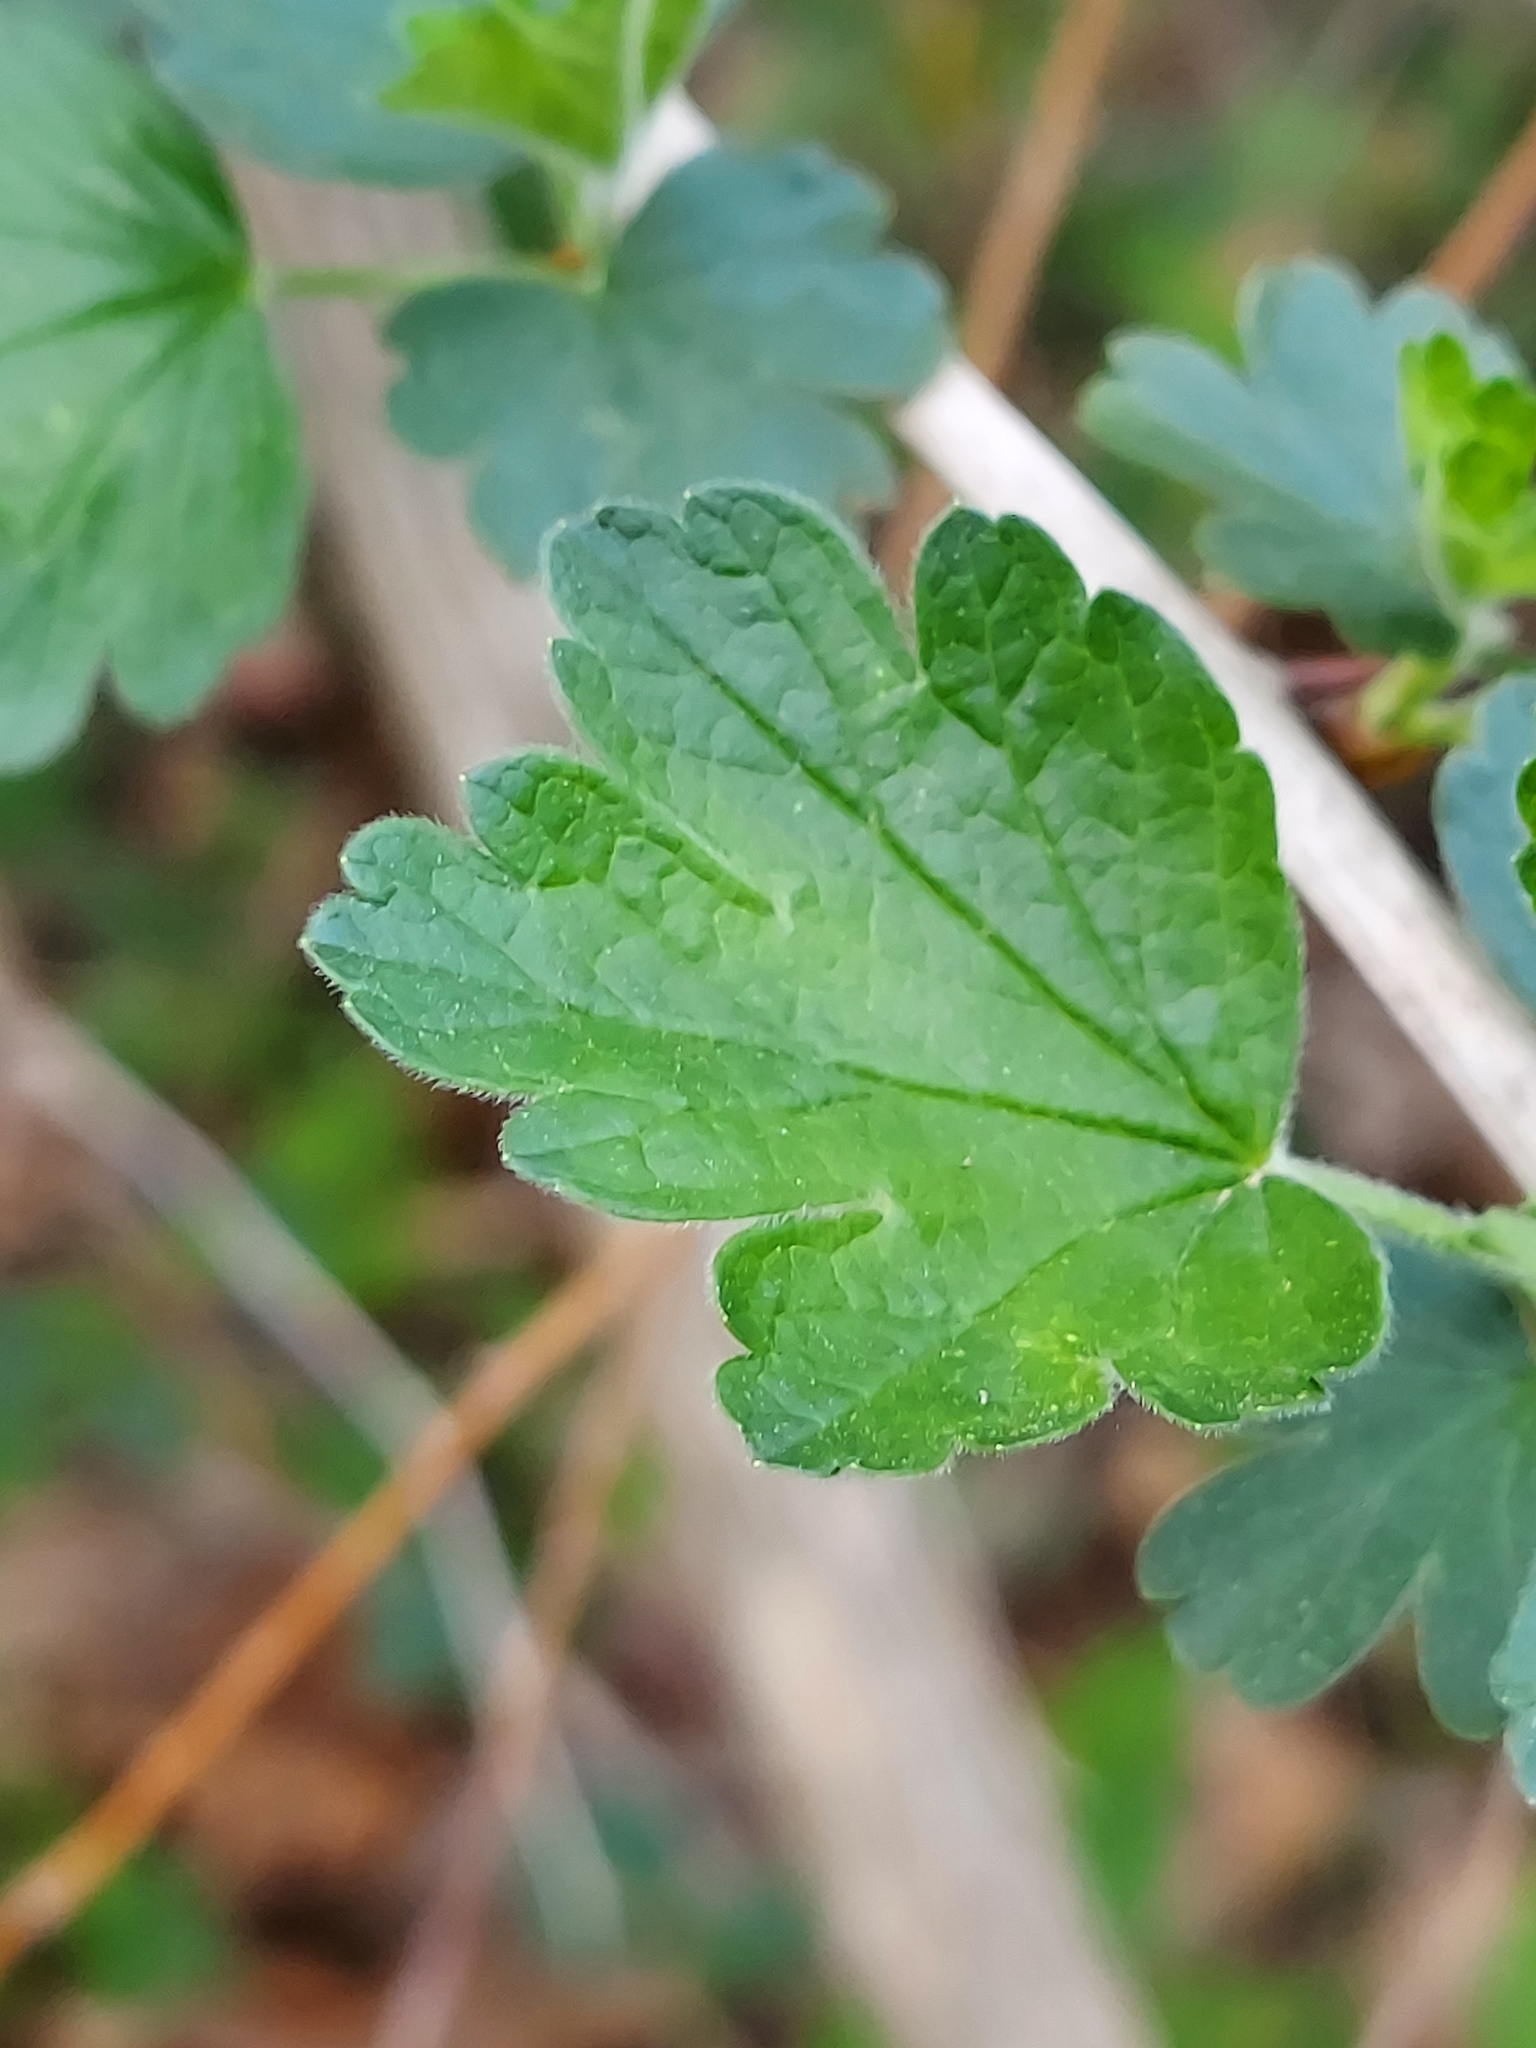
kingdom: Plantae
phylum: Tracheophyta
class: Magnoliopsida
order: Saxifragales
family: Grossulariaceae
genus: Ribes
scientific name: Ribes missouriense
